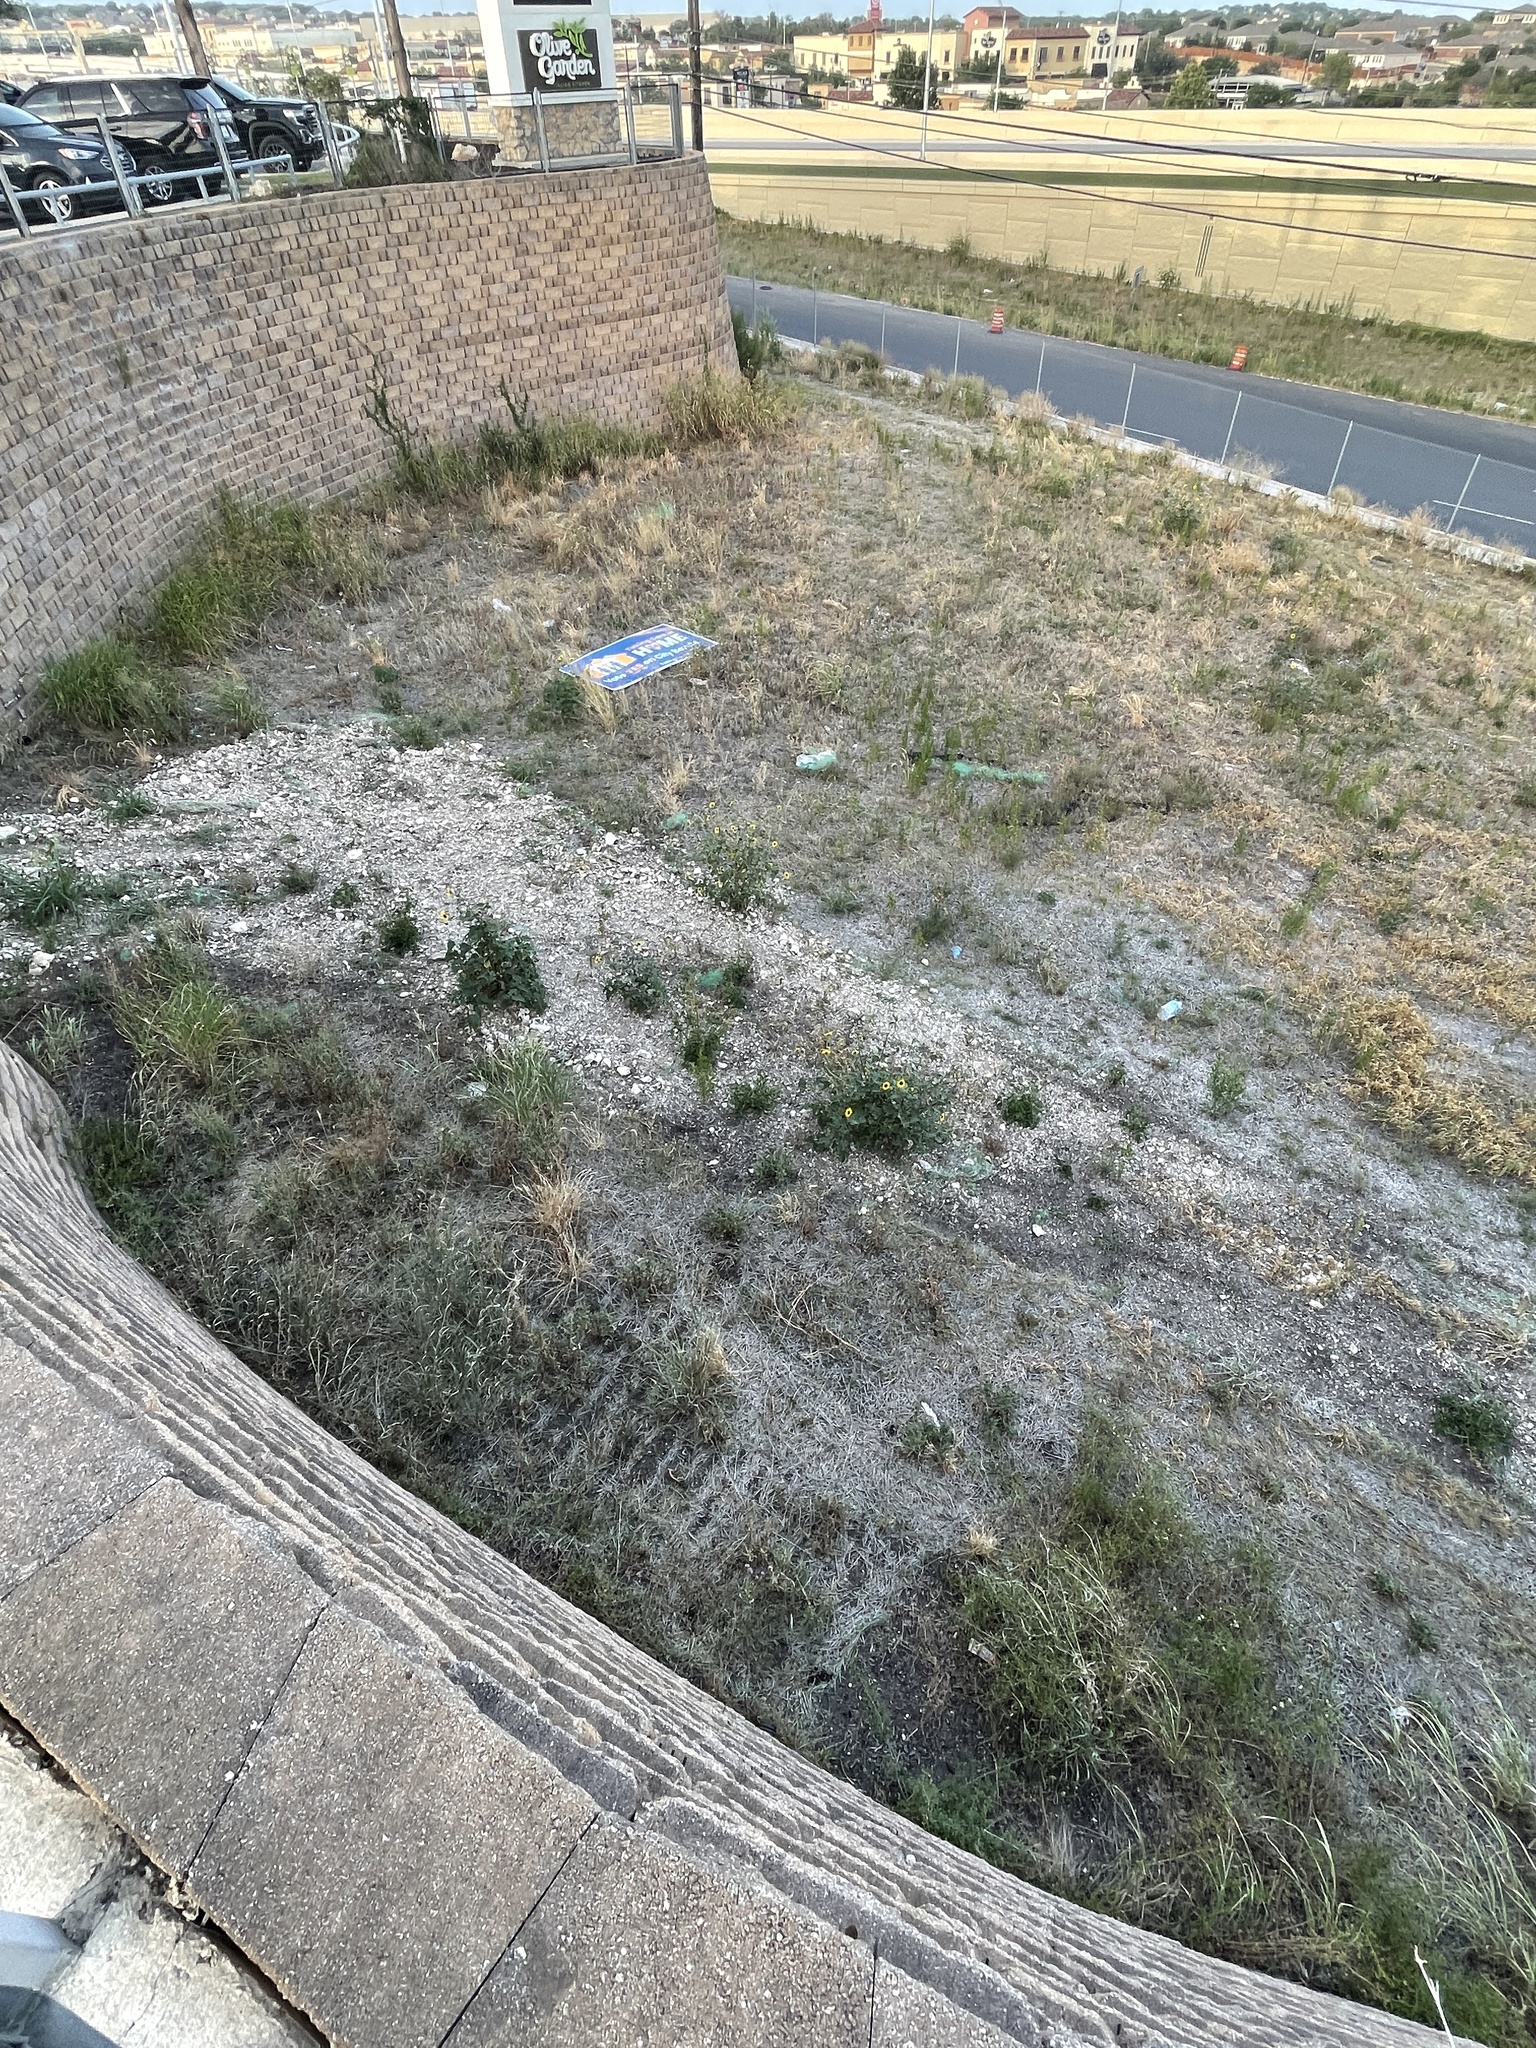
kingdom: Plantae
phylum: Tracheophyta
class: Magnoliopsida
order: Asterales
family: Asteraceae
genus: Helianthus
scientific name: Helianthus annuus
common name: Sunflower
